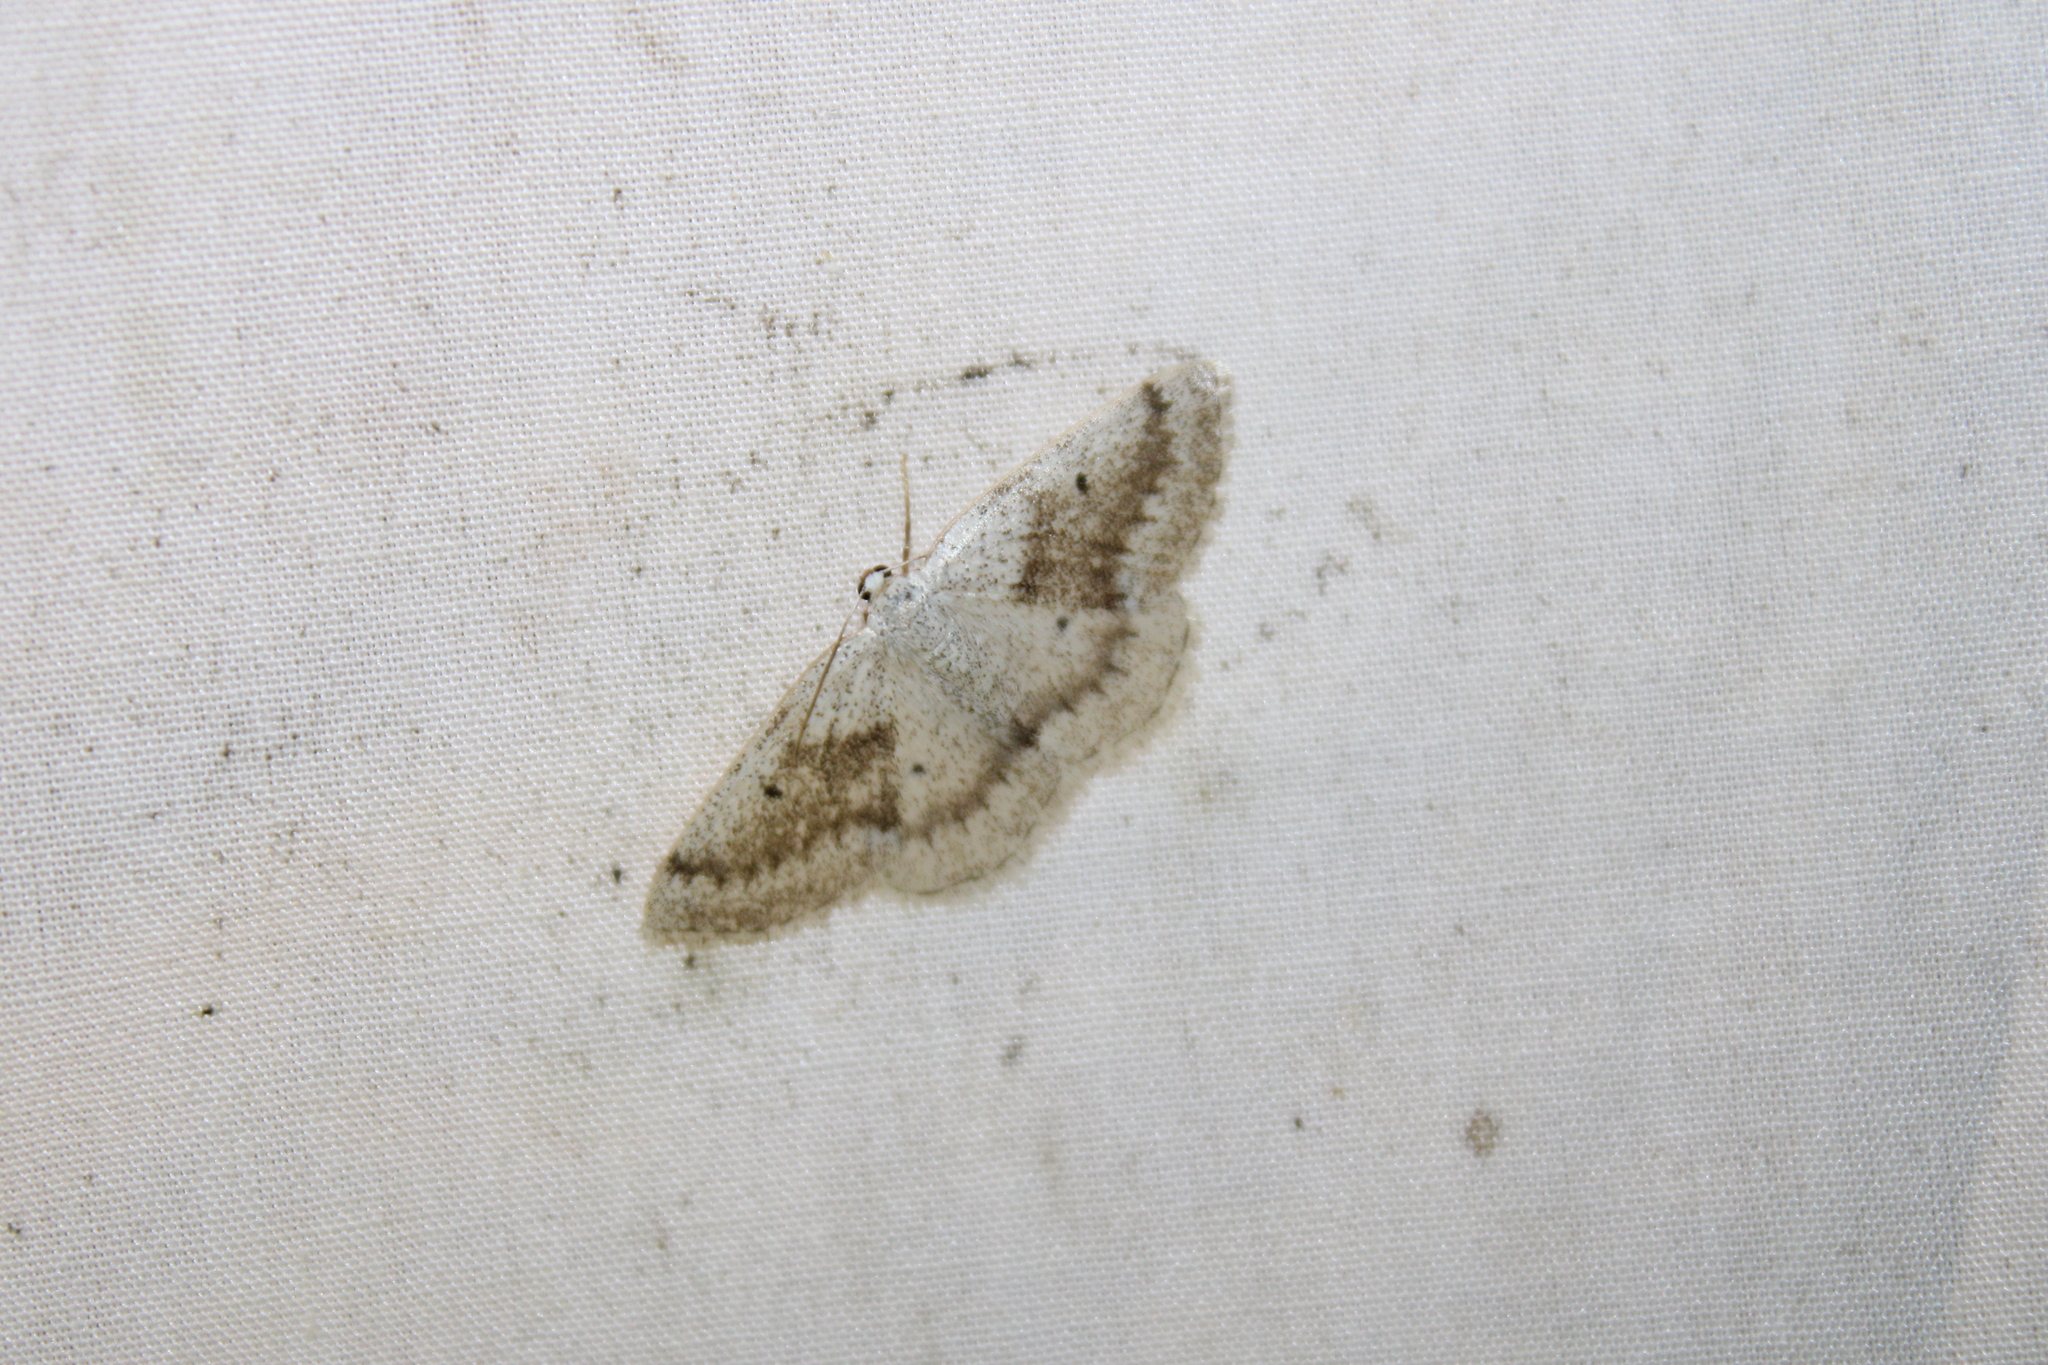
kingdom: Animalia
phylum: Arthropoda
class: Insecta
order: Lepidoptera
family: Geometridae
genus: Lomographa
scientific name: Lomographa glomeraria
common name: Gray spring moth
